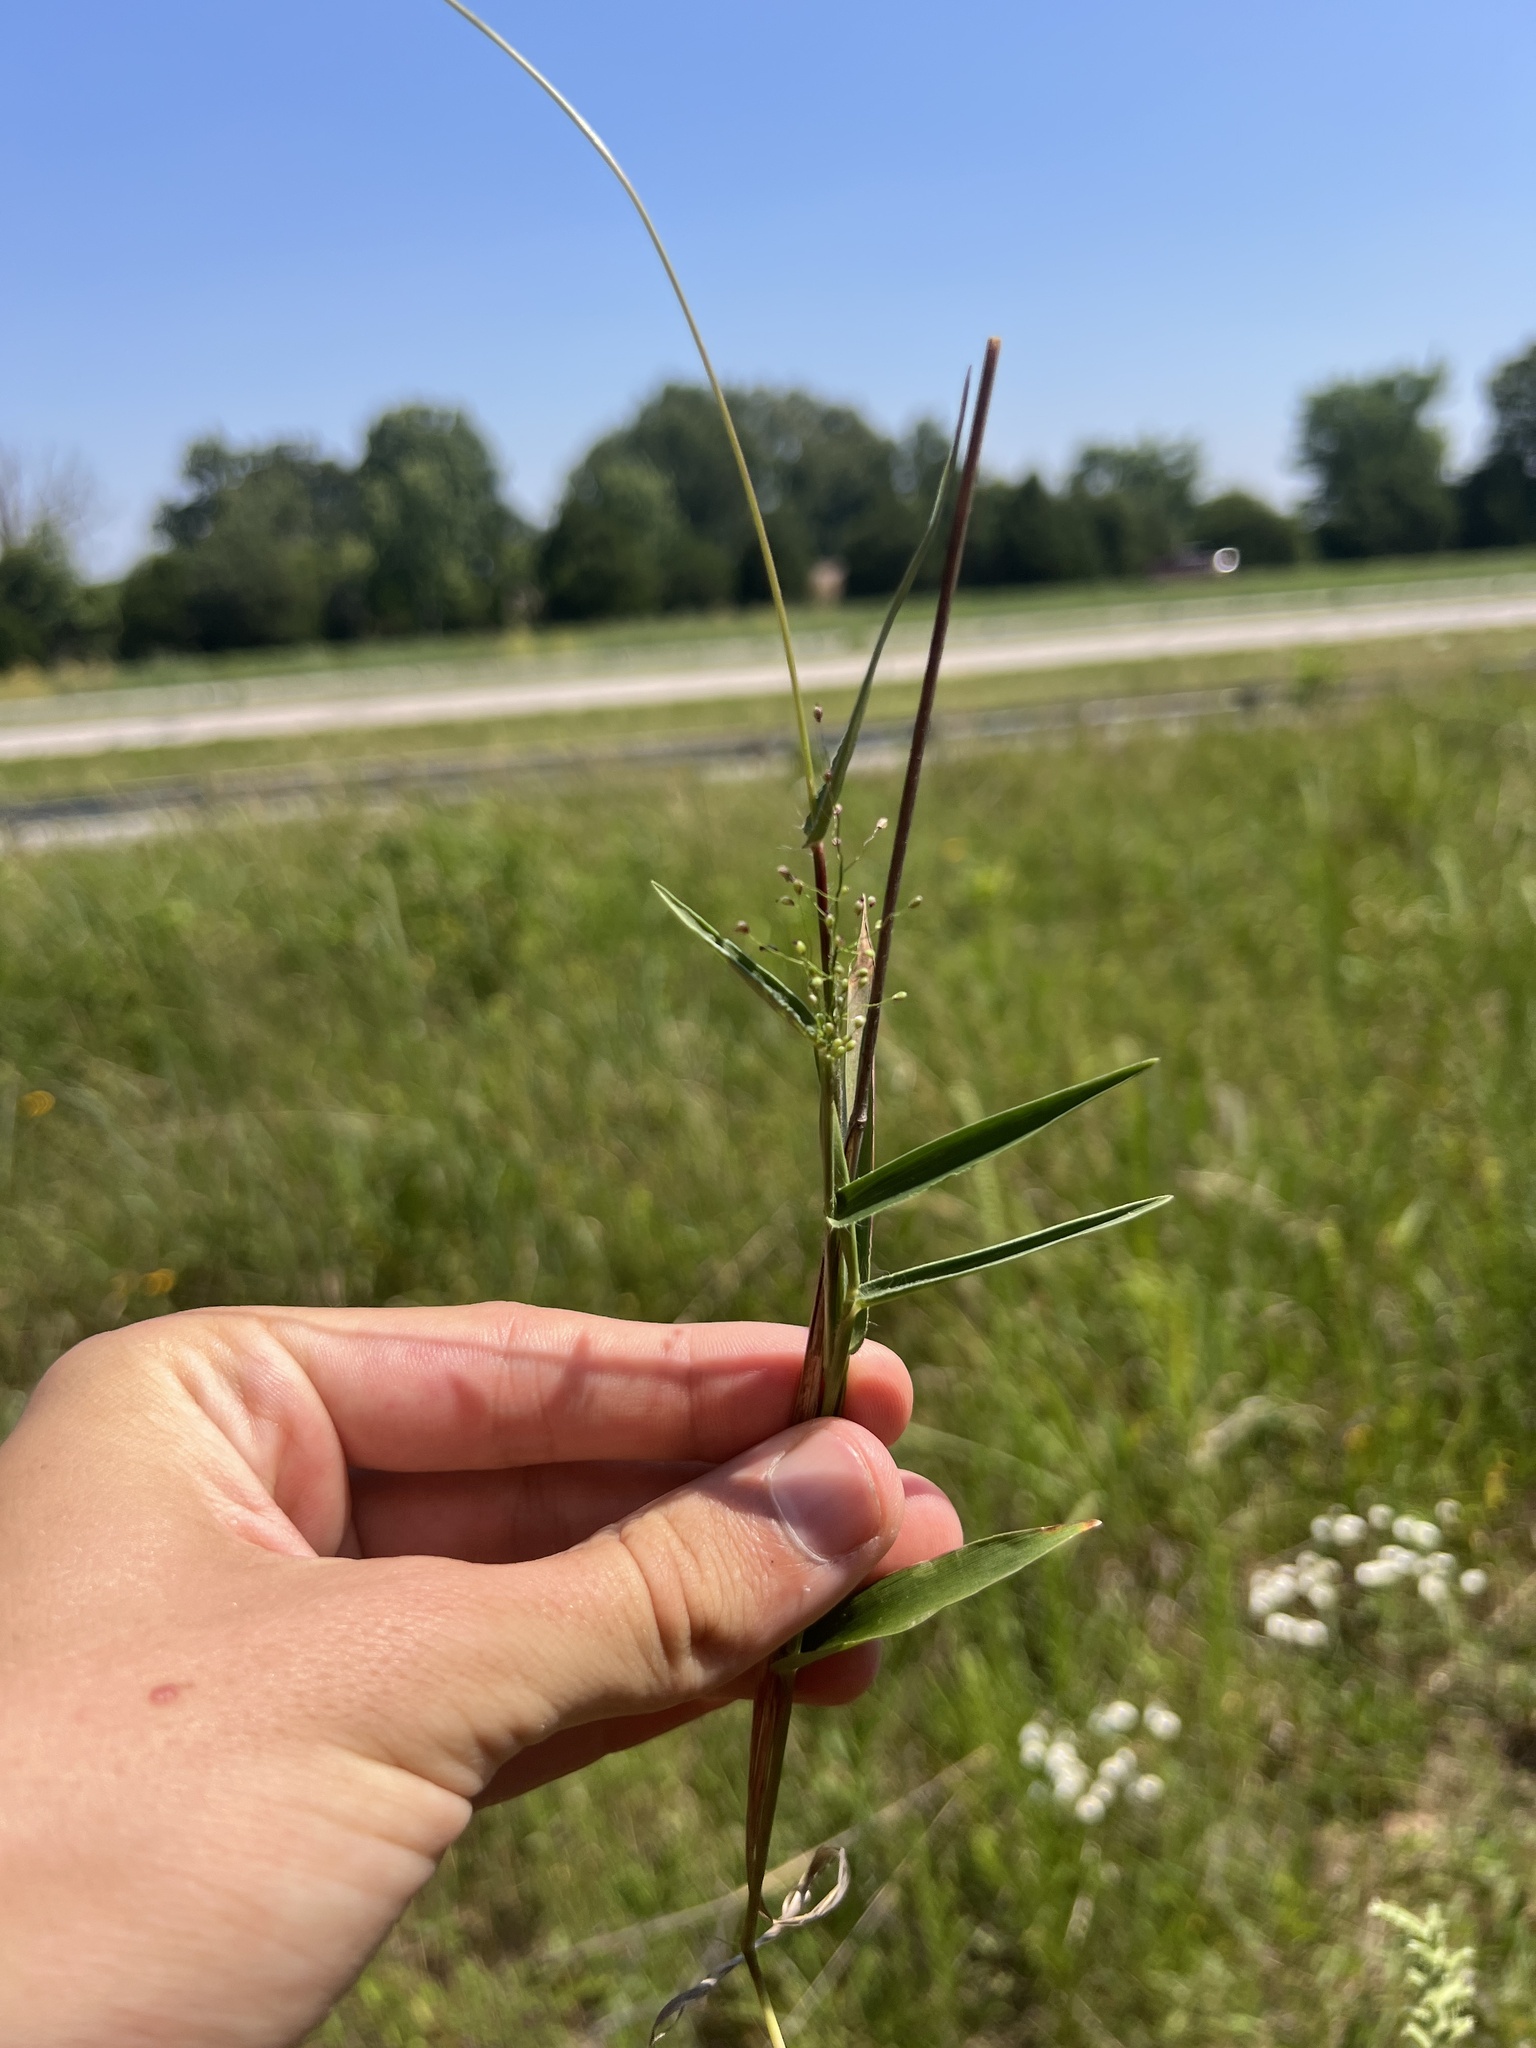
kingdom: Plantae
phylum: Tracheophyta
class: Liliopsida
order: Poales
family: Poaceae
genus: Dichanthelium
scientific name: Dichanthelium sphaerocarpon
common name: Round-fruited panicgrass
